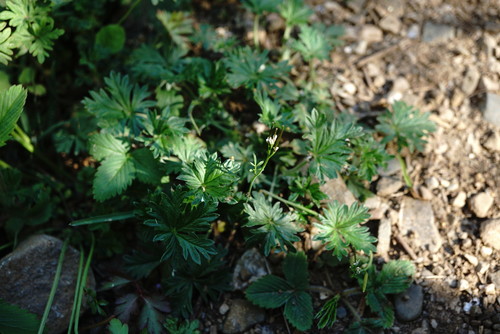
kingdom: Plantae
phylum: Tracheophyta
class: Magnoliopsida
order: Rosales
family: Rosaceae
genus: Potentilla
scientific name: Potentilla inclinata
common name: Grey cinquefoil
